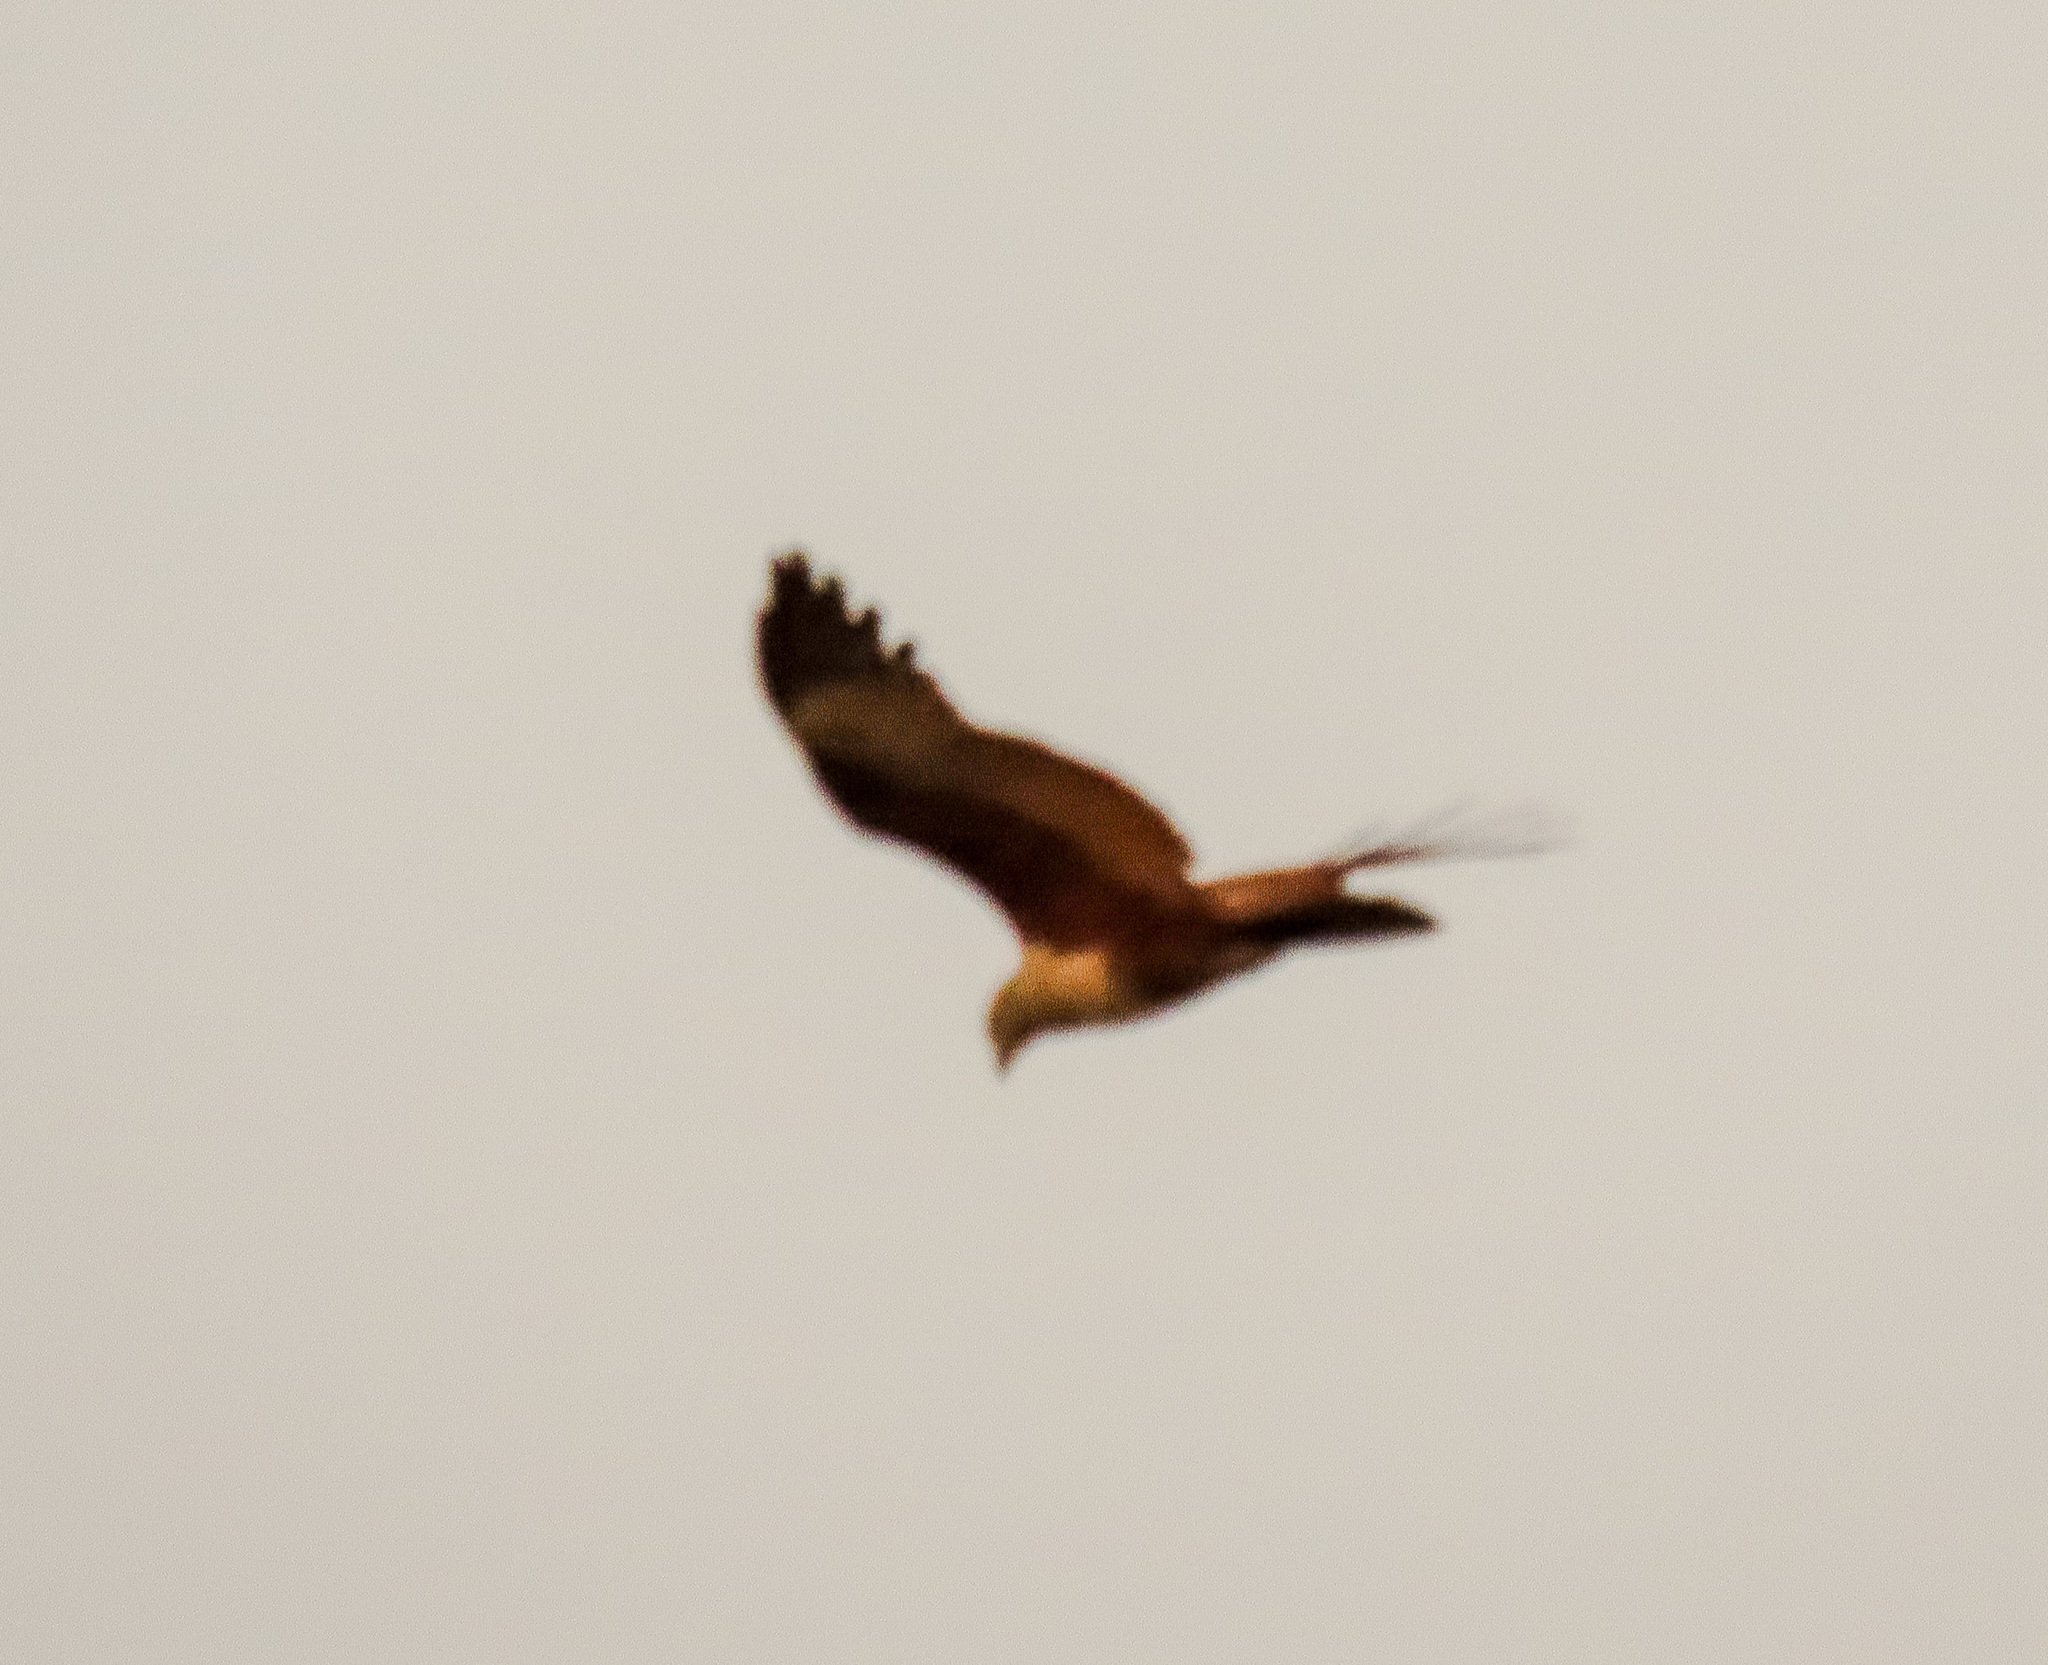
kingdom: Animalia
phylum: Chordata
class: Aves
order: Accipitriformes
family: Accipitridae
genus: Haliastur
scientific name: Haliastur indus
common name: Brahminy kite
